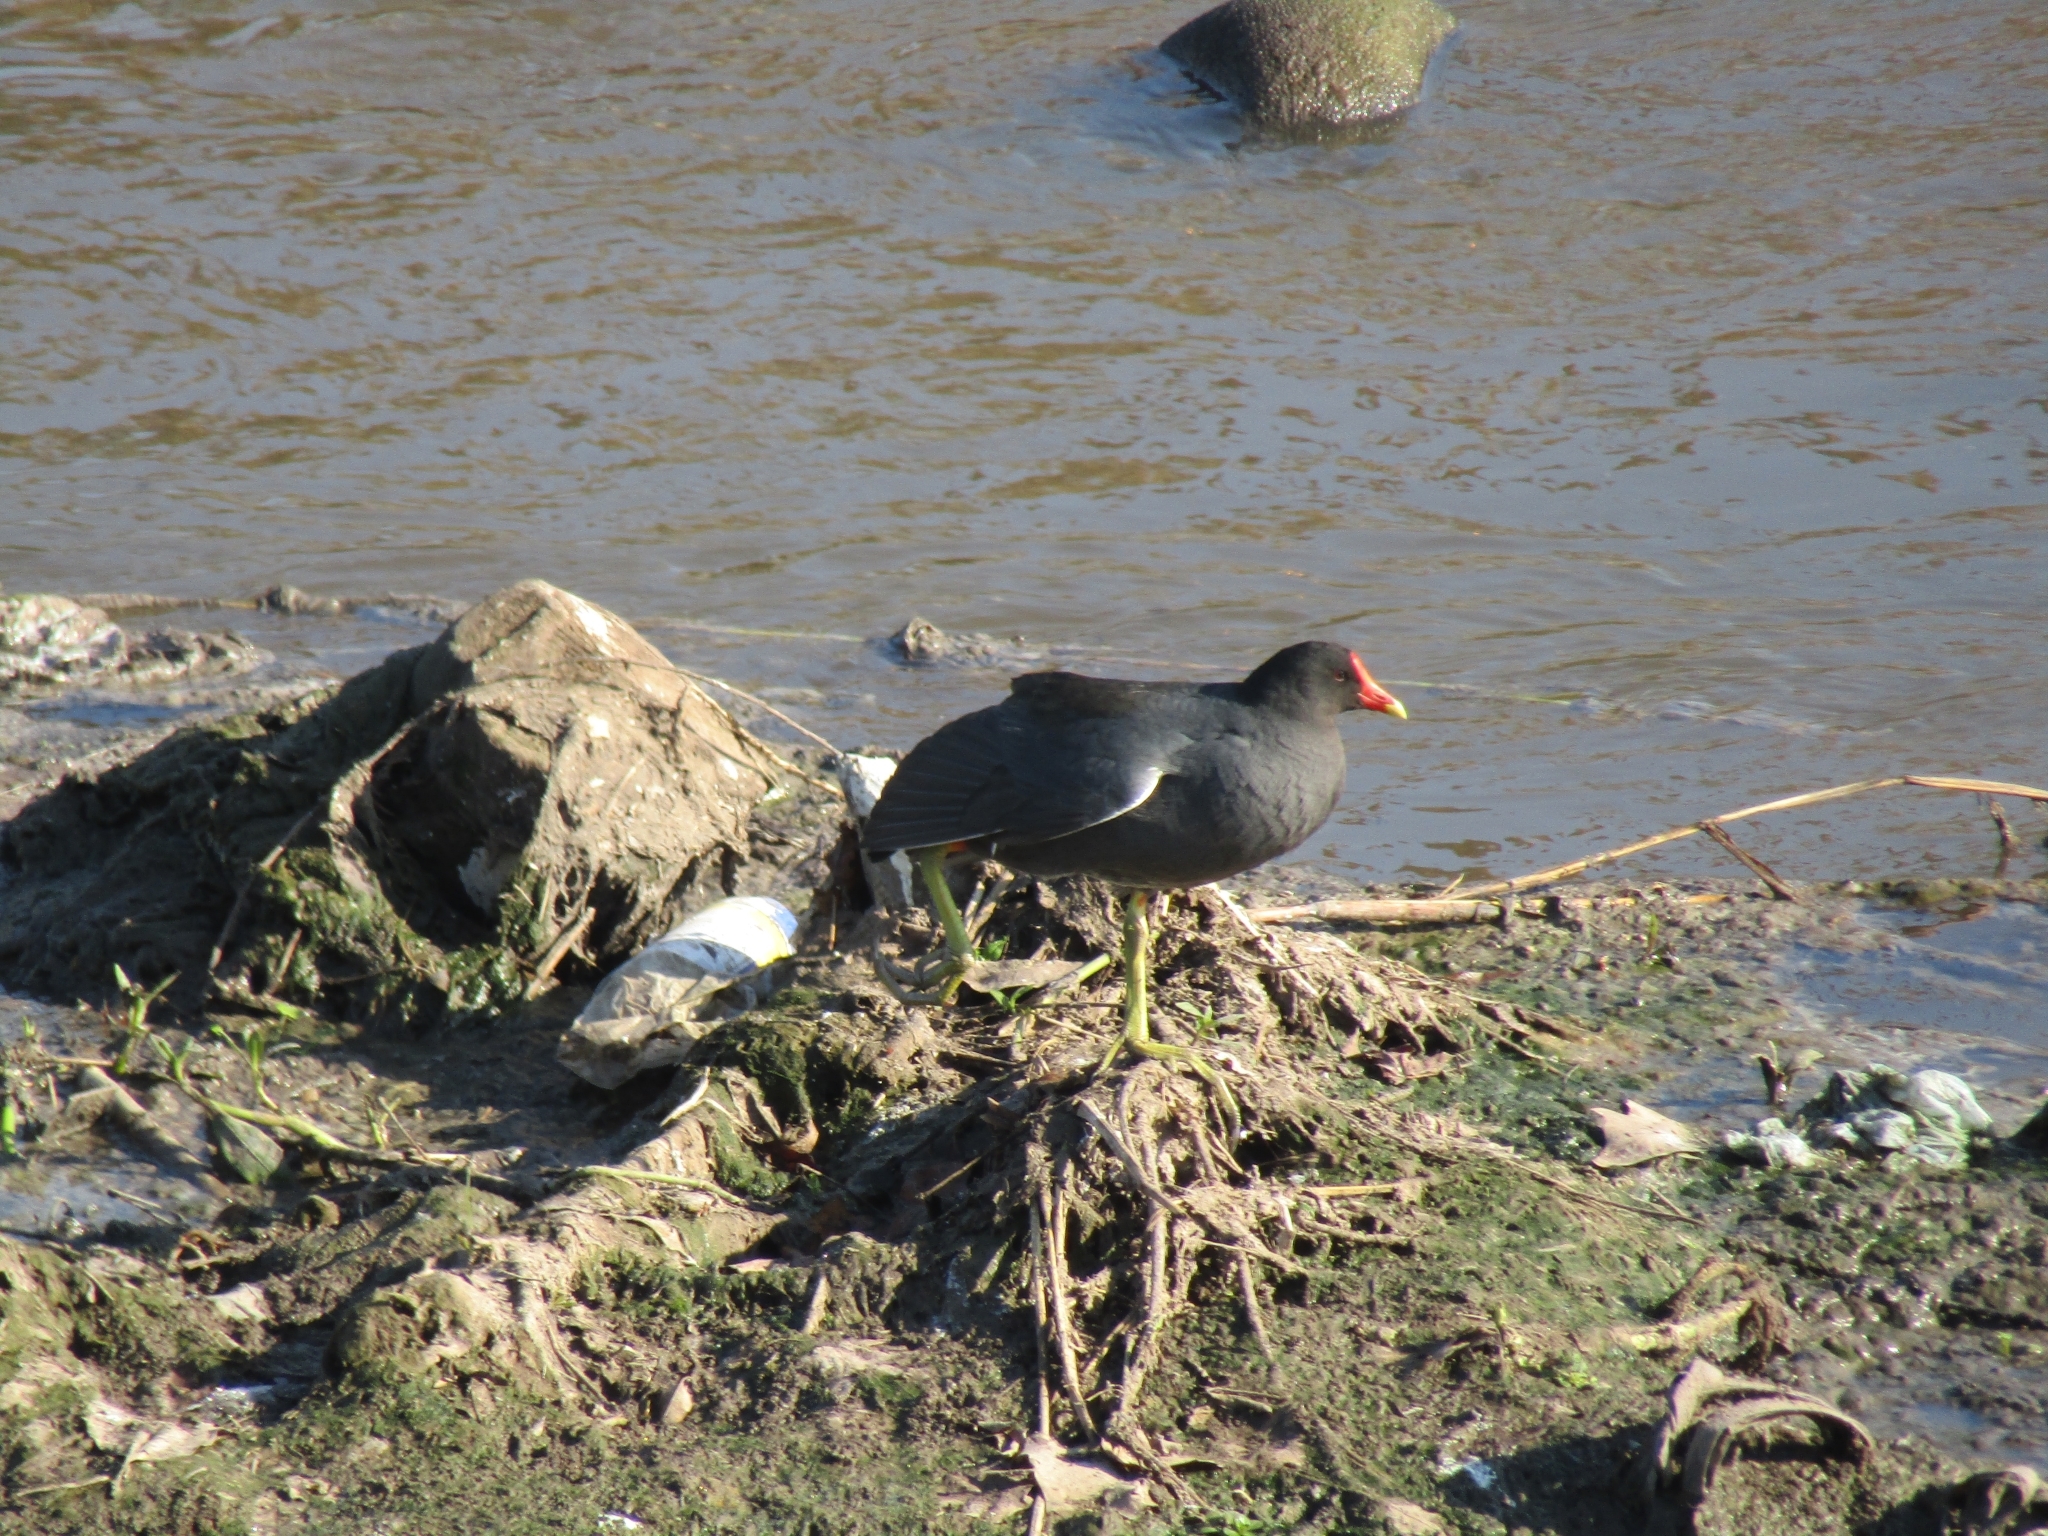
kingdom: Animalia
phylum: Chordata
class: Aves
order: Gruiformes
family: Rallidae
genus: Gallinula
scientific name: Gallinula chloropus
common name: Common moorhen
